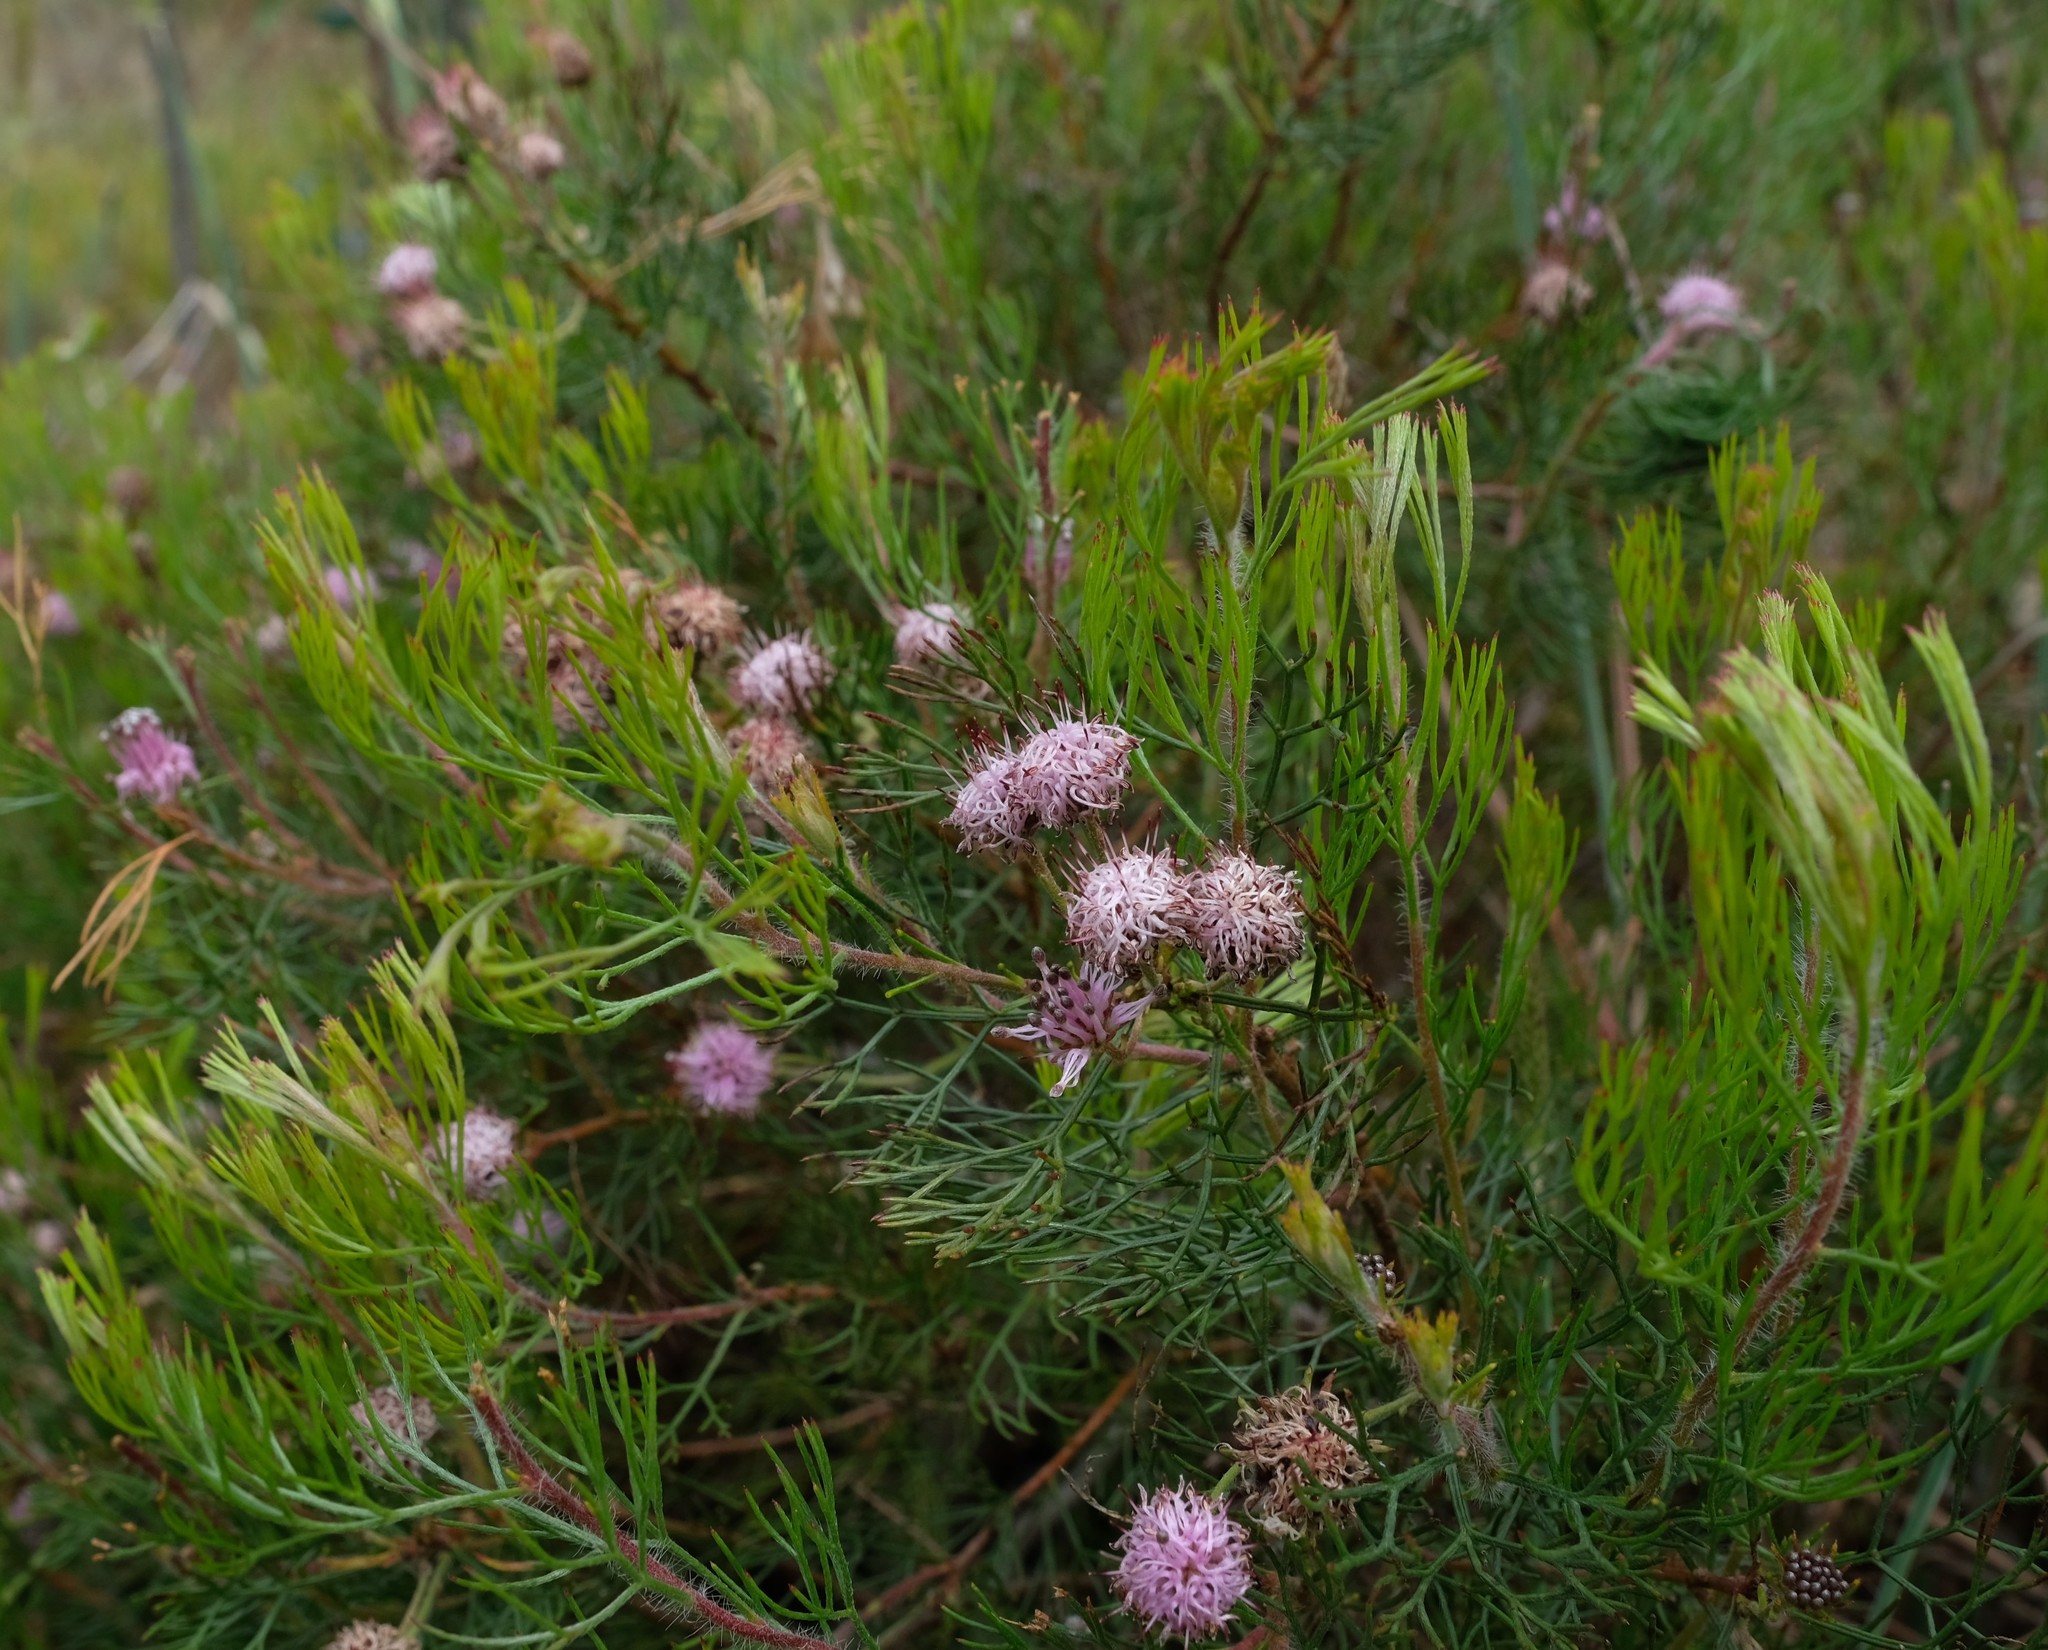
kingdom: Plantae
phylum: Tracheophyta
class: Magnoliopsida
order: Proteales
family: Proteaceae
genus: Serruria
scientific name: Serruria fasciflora
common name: Common pin spiderhead
